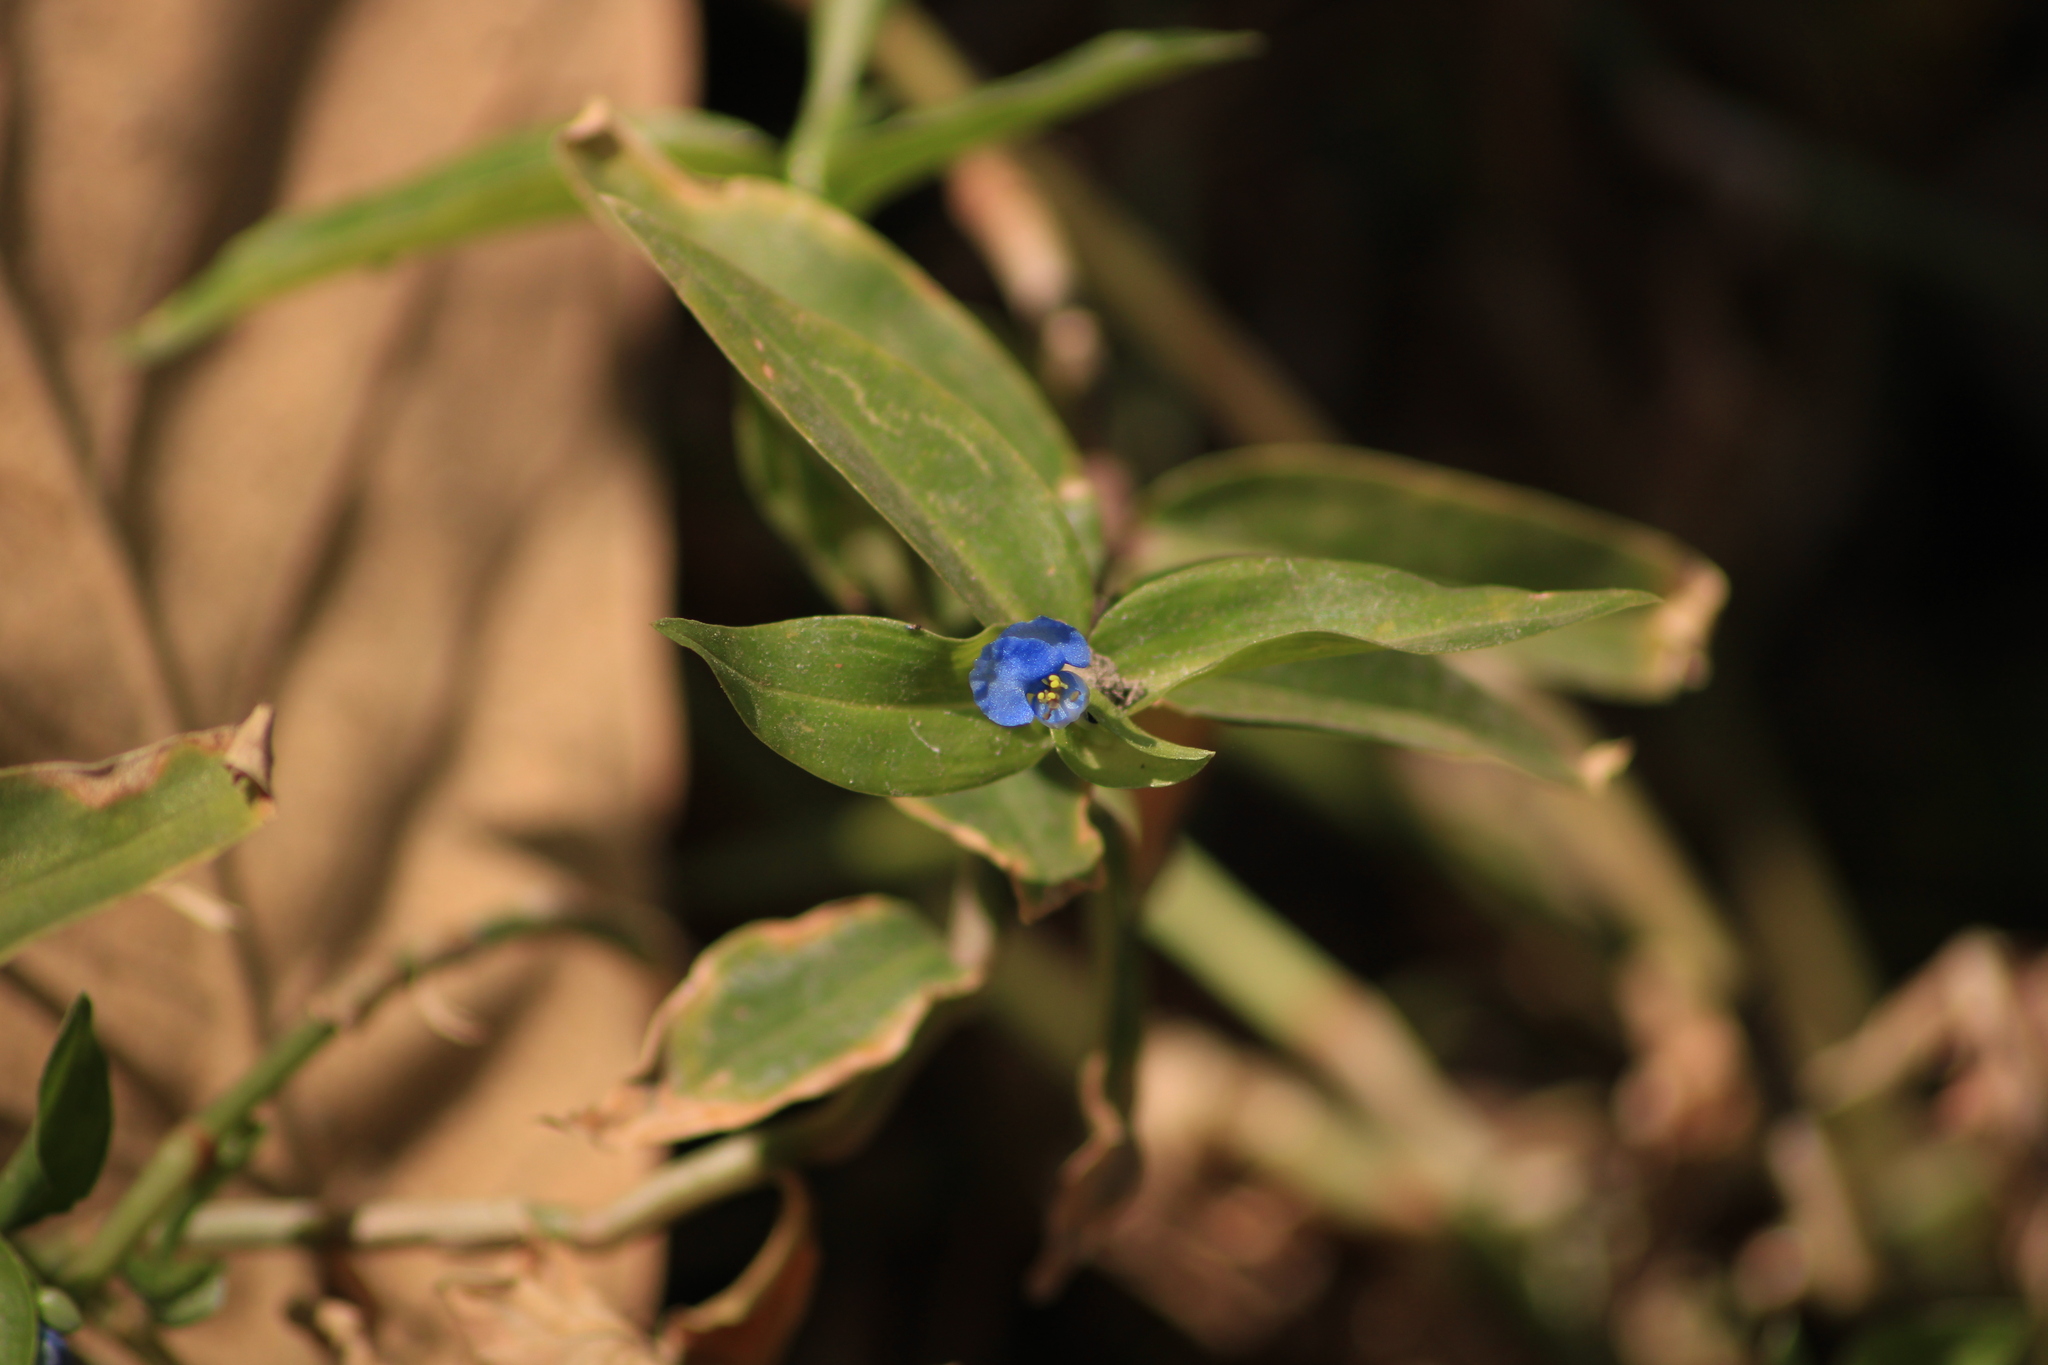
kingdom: Plantae
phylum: Tracheophyta
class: Liliopsida
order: Commelinales
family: Commelinaceae
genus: Commelina
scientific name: Commelina diffusa
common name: Climbing dayflower
